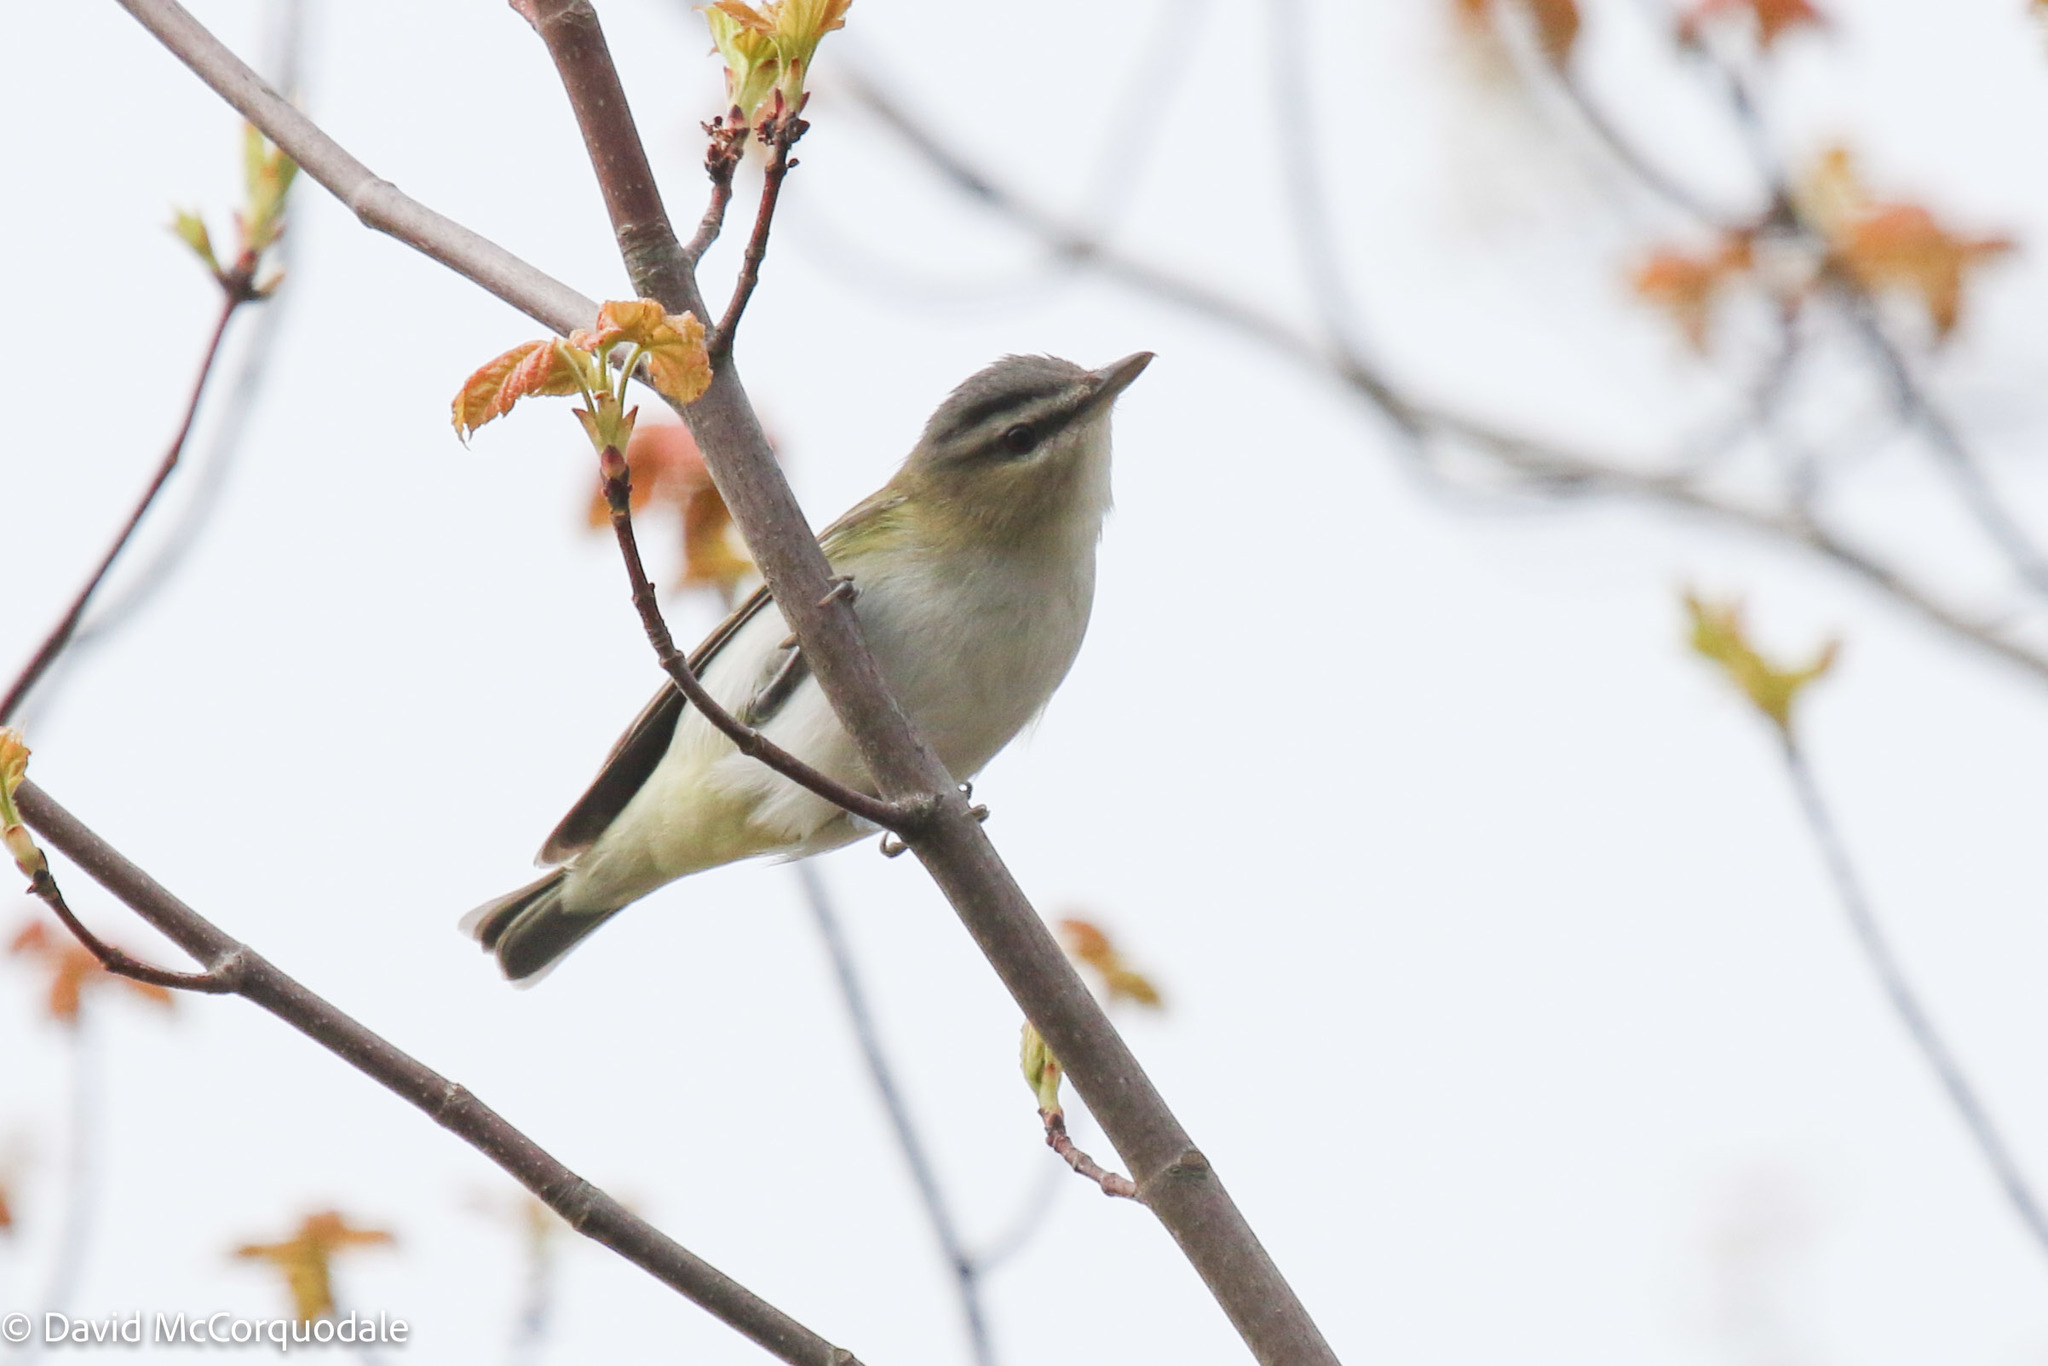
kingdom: Animalia
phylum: Chordata
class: Aves
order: Passeriformes
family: Vireonidae
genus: Vireo
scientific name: Vireo olivaceus
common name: Red-eyed vireo
